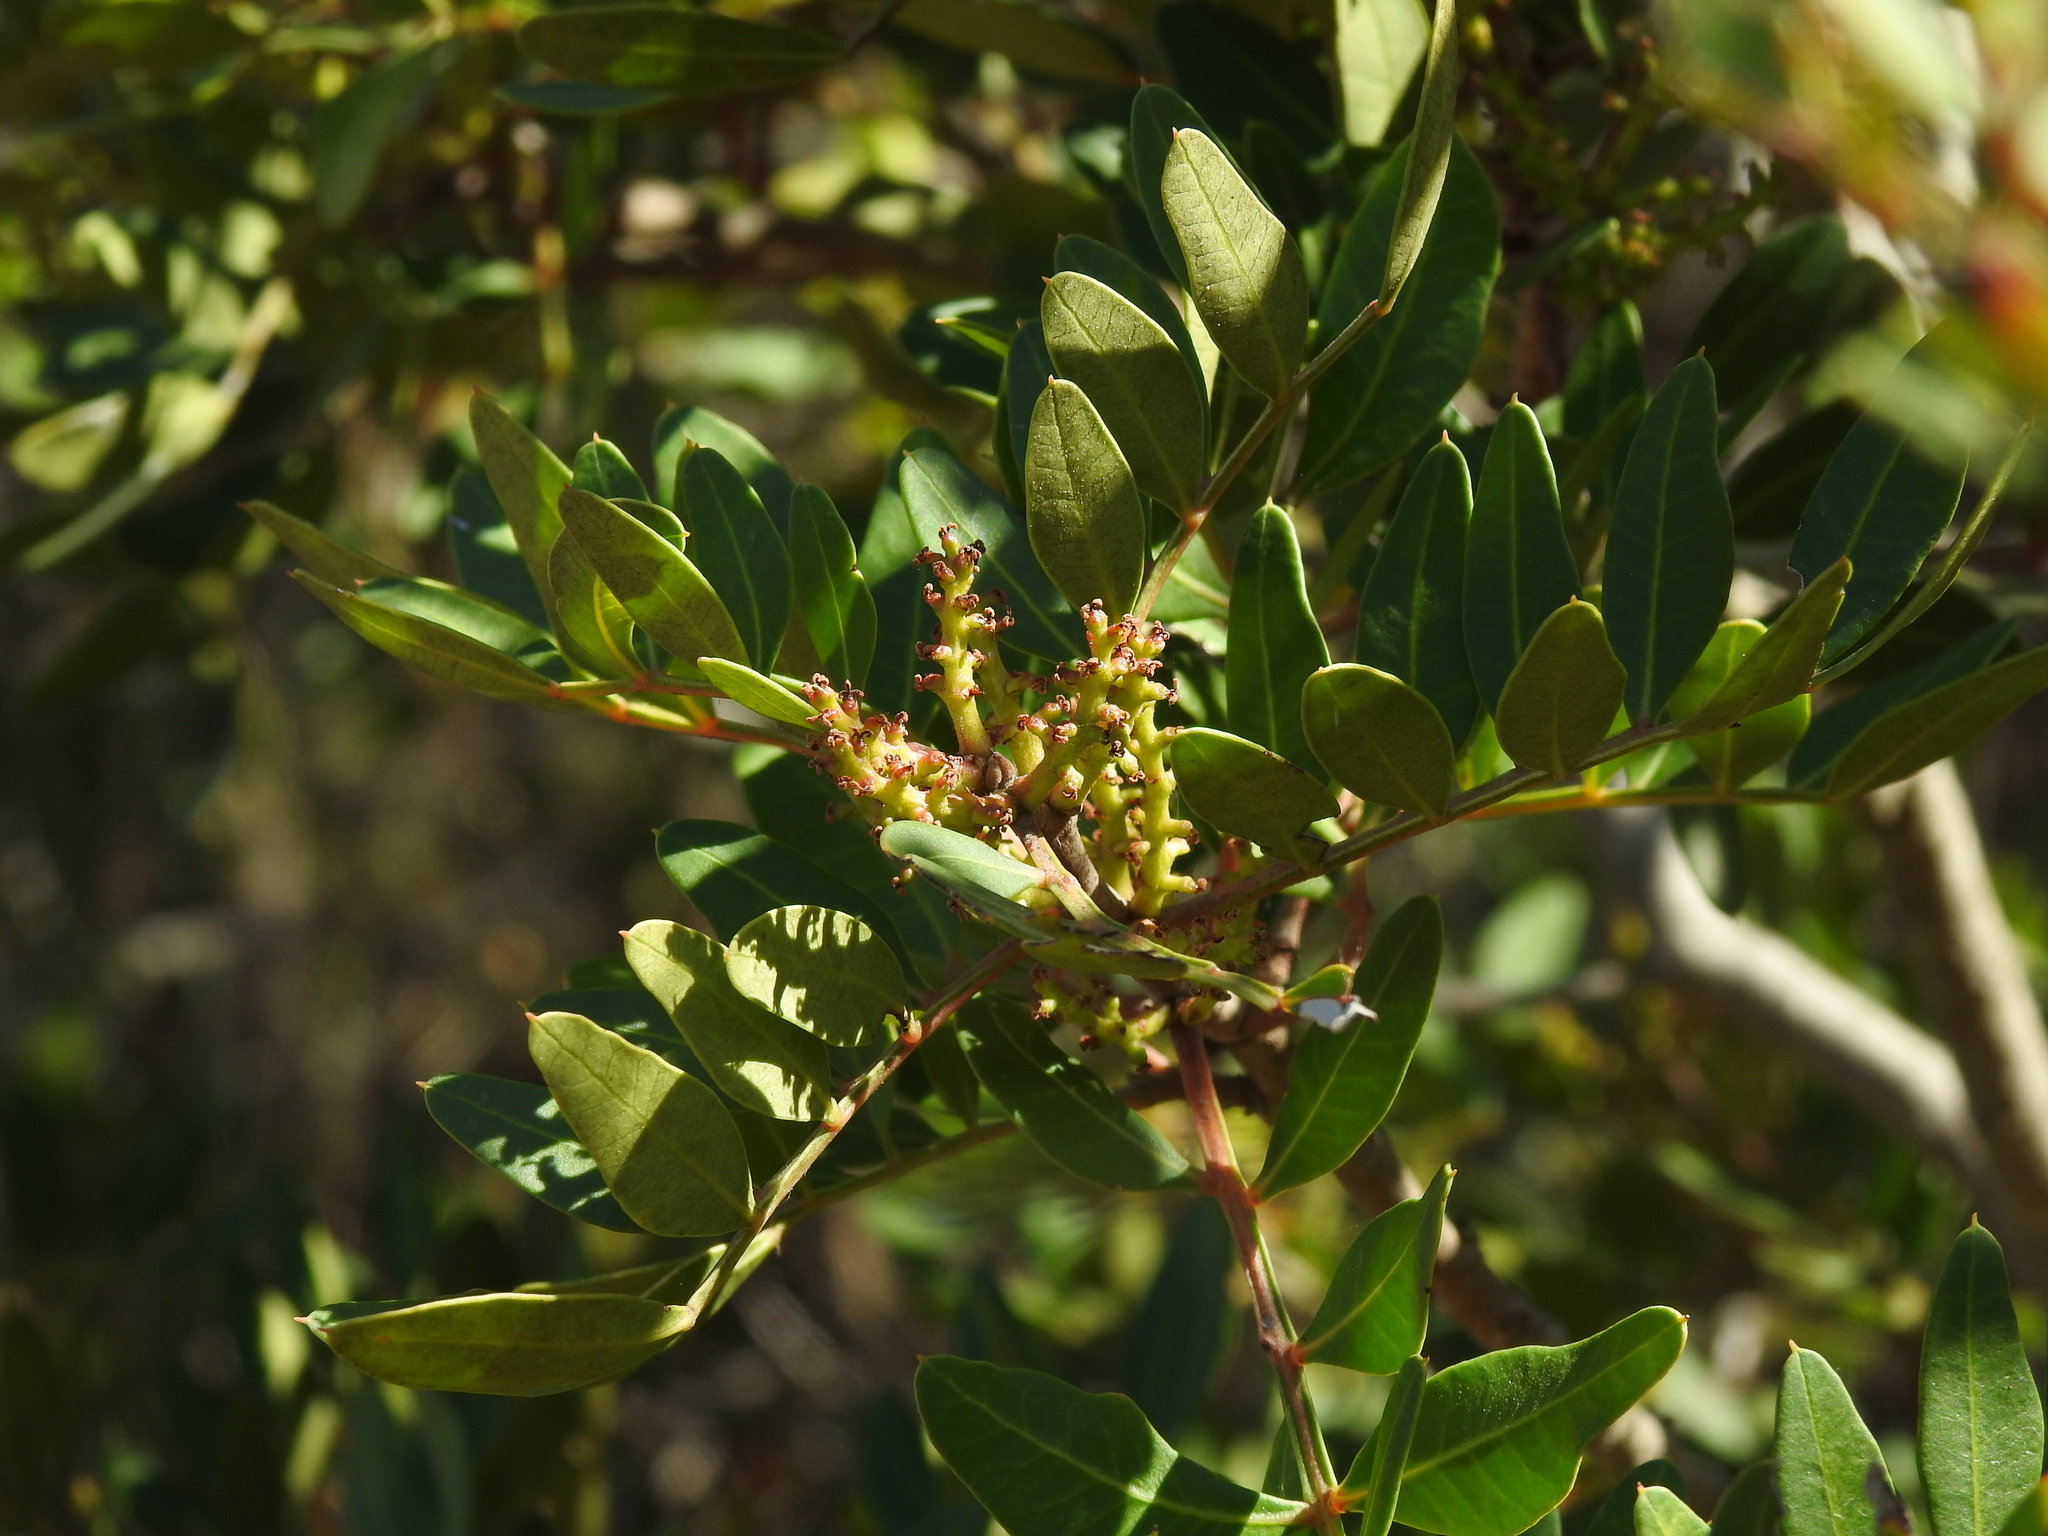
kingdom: Plantae
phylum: Tracheophyta
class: Magnoliopsida
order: Sapindales
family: Anacardiaceae
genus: Pistacia
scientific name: Pistacia lentiscus
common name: Lentisk
